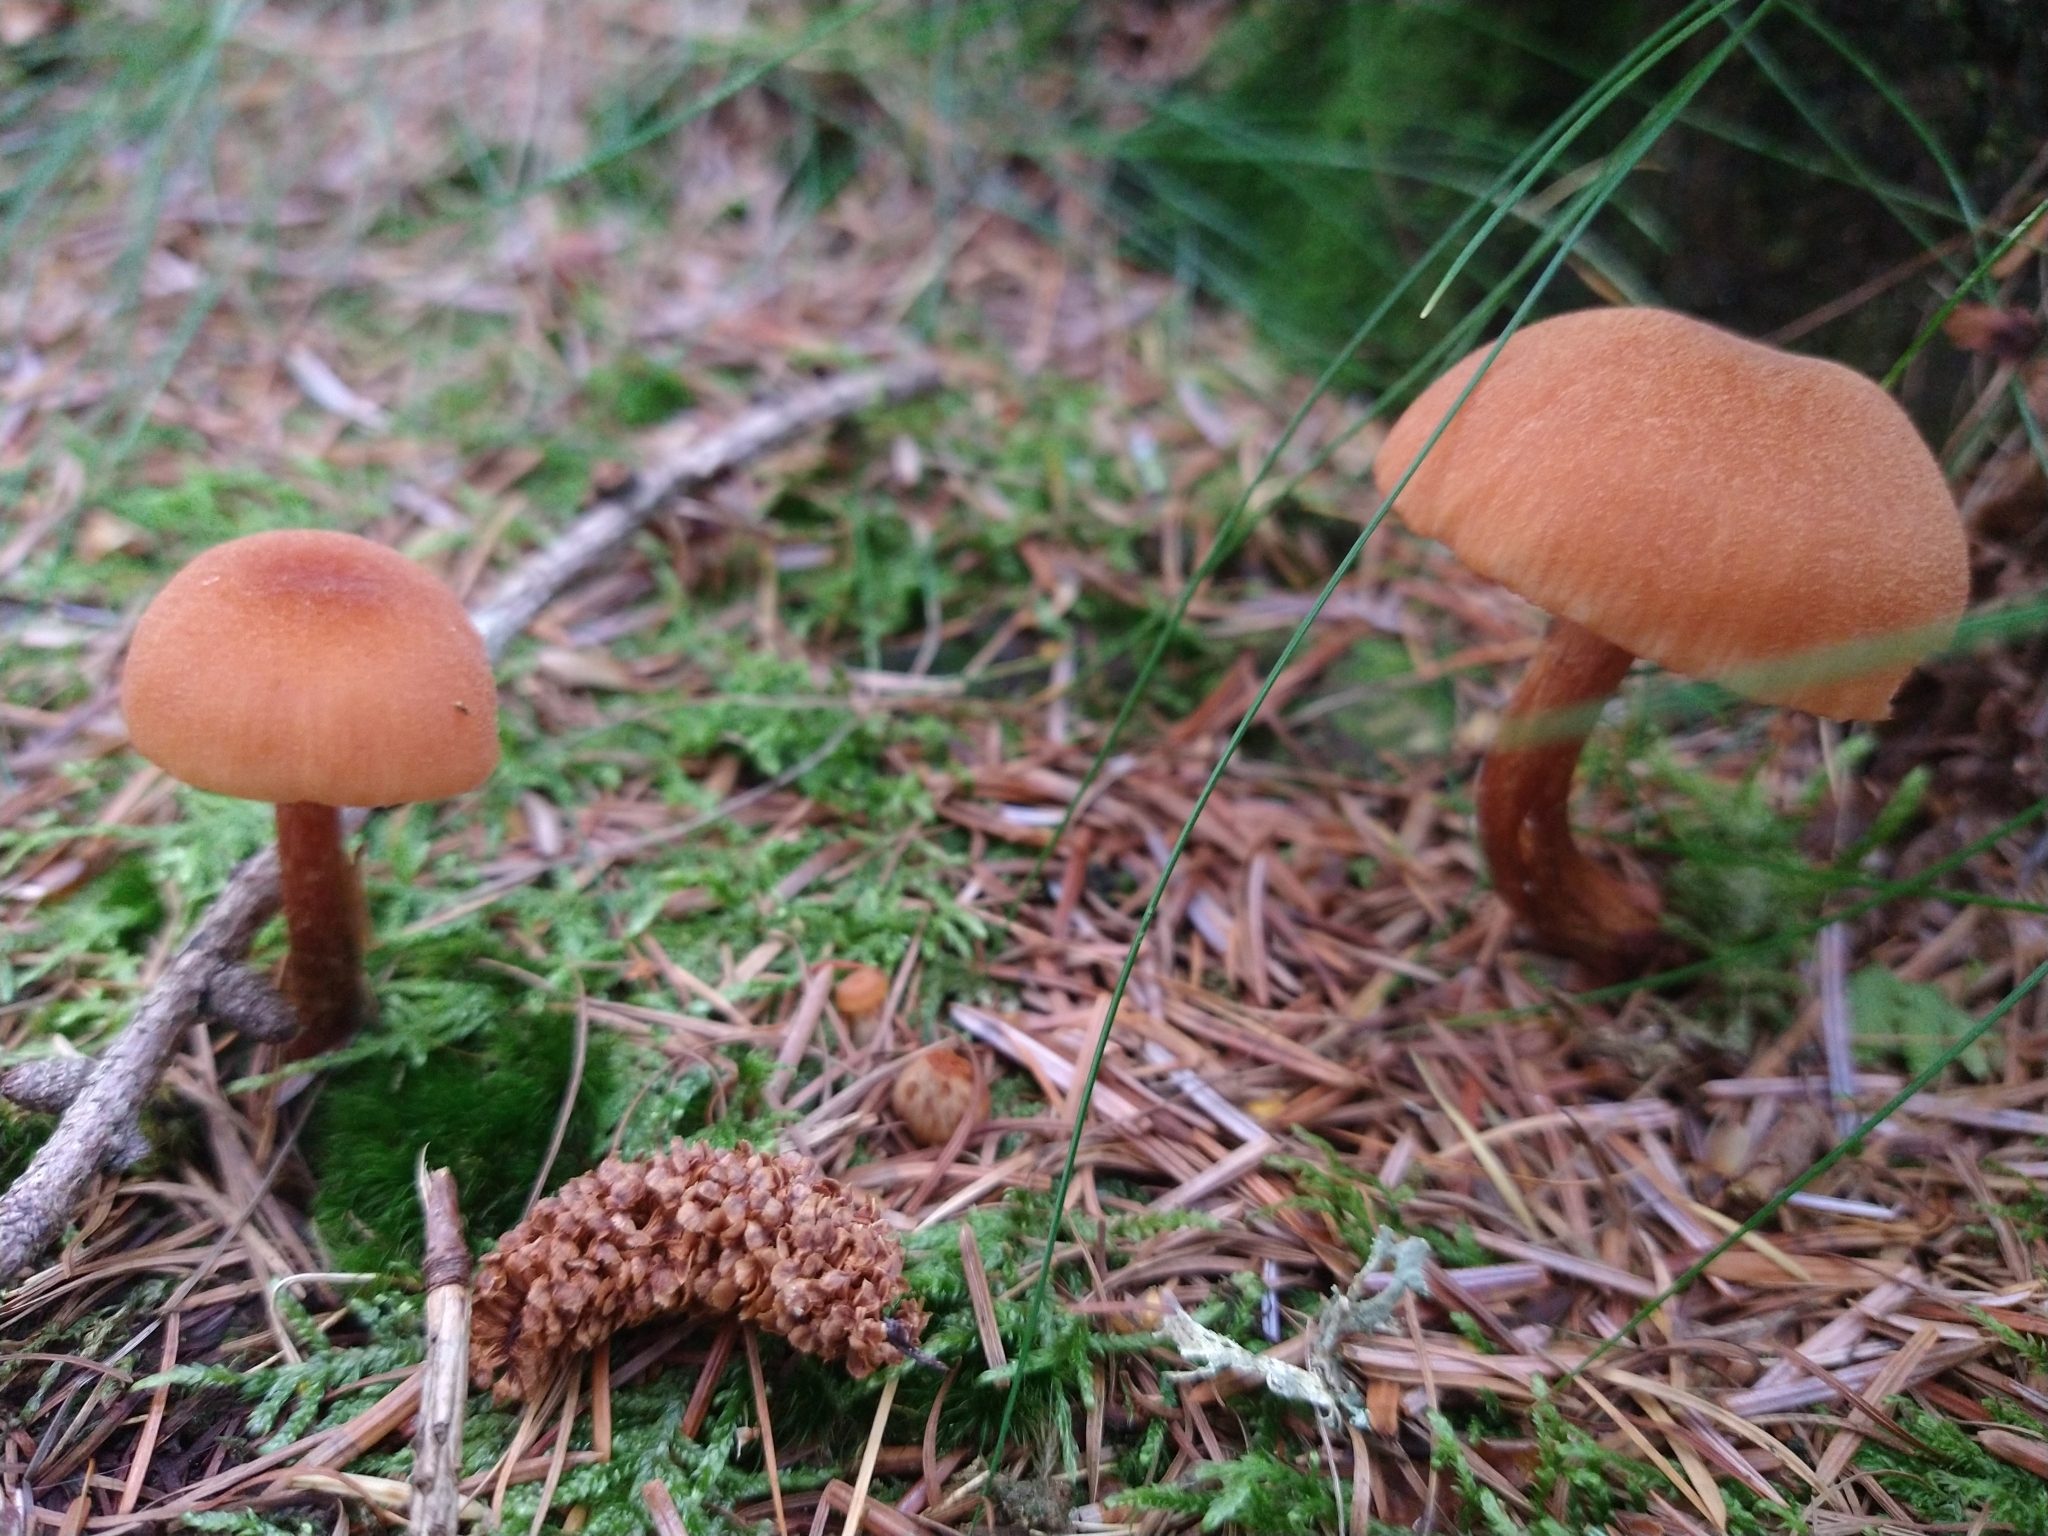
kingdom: Fungi
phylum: Basidiomycota
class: Agaricomycetes
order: Agaricales
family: Hydnangiaceae
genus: Laccaria
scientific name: Laccaria laccata
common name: Deceiver
